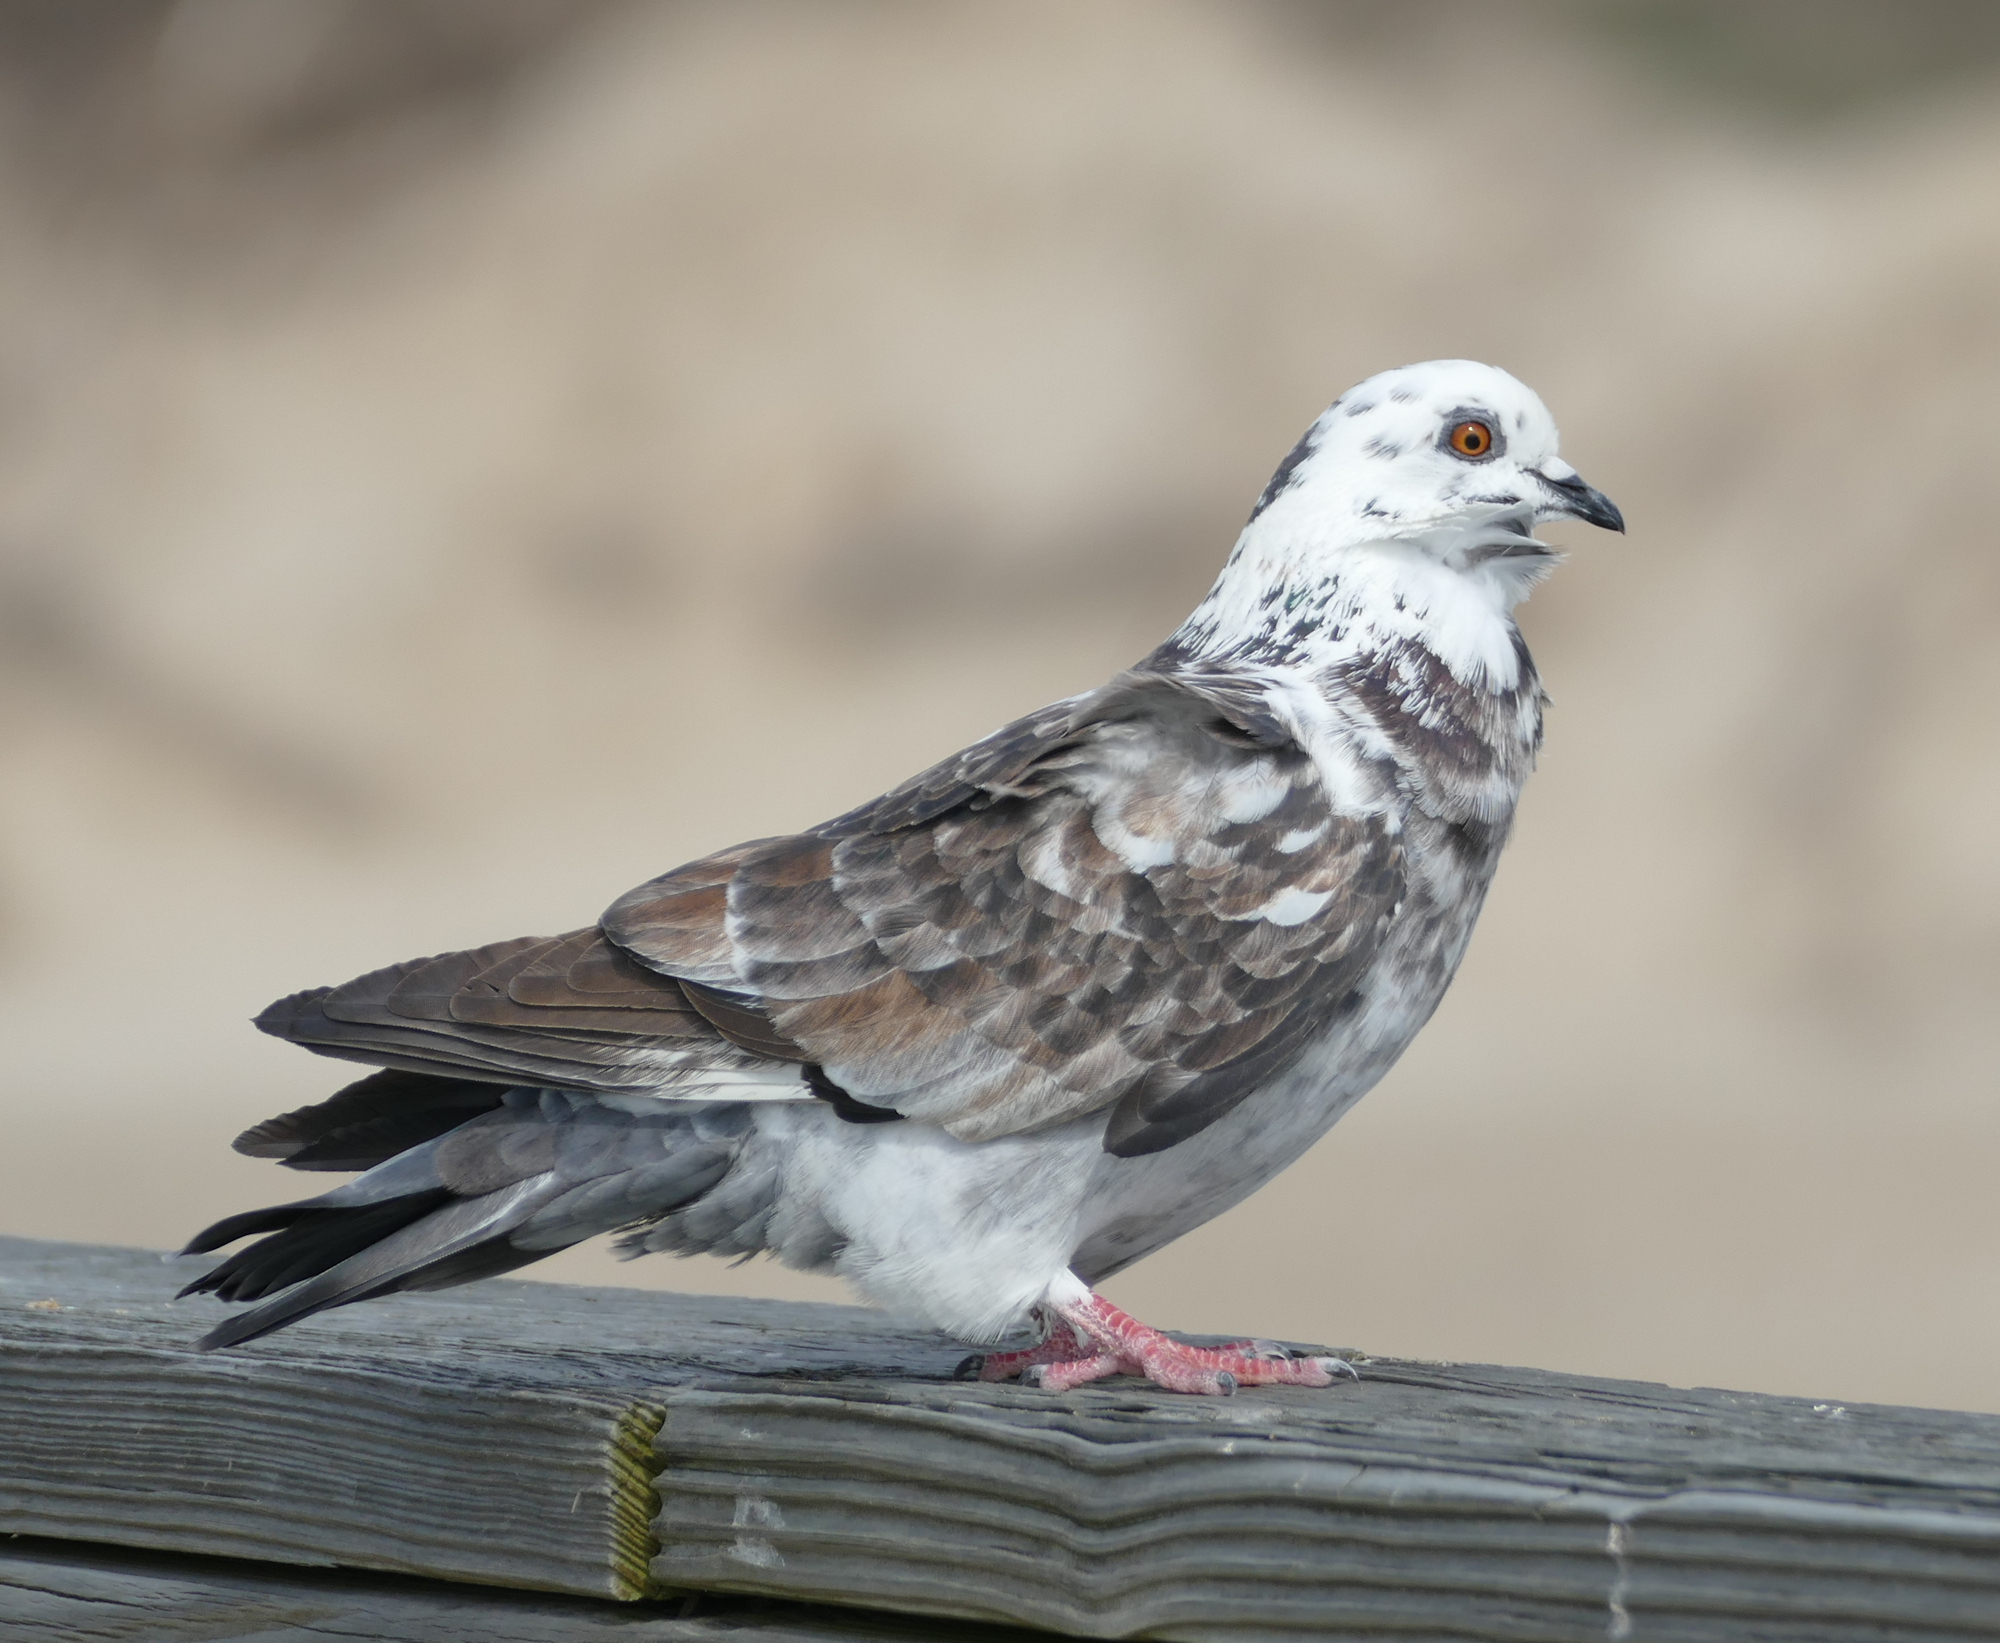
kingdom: Animalia
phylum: Chordata
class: Aves
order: Columbiformes
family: Columbidae
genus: Columba
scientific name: Columba livia
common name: Rock pigeon
